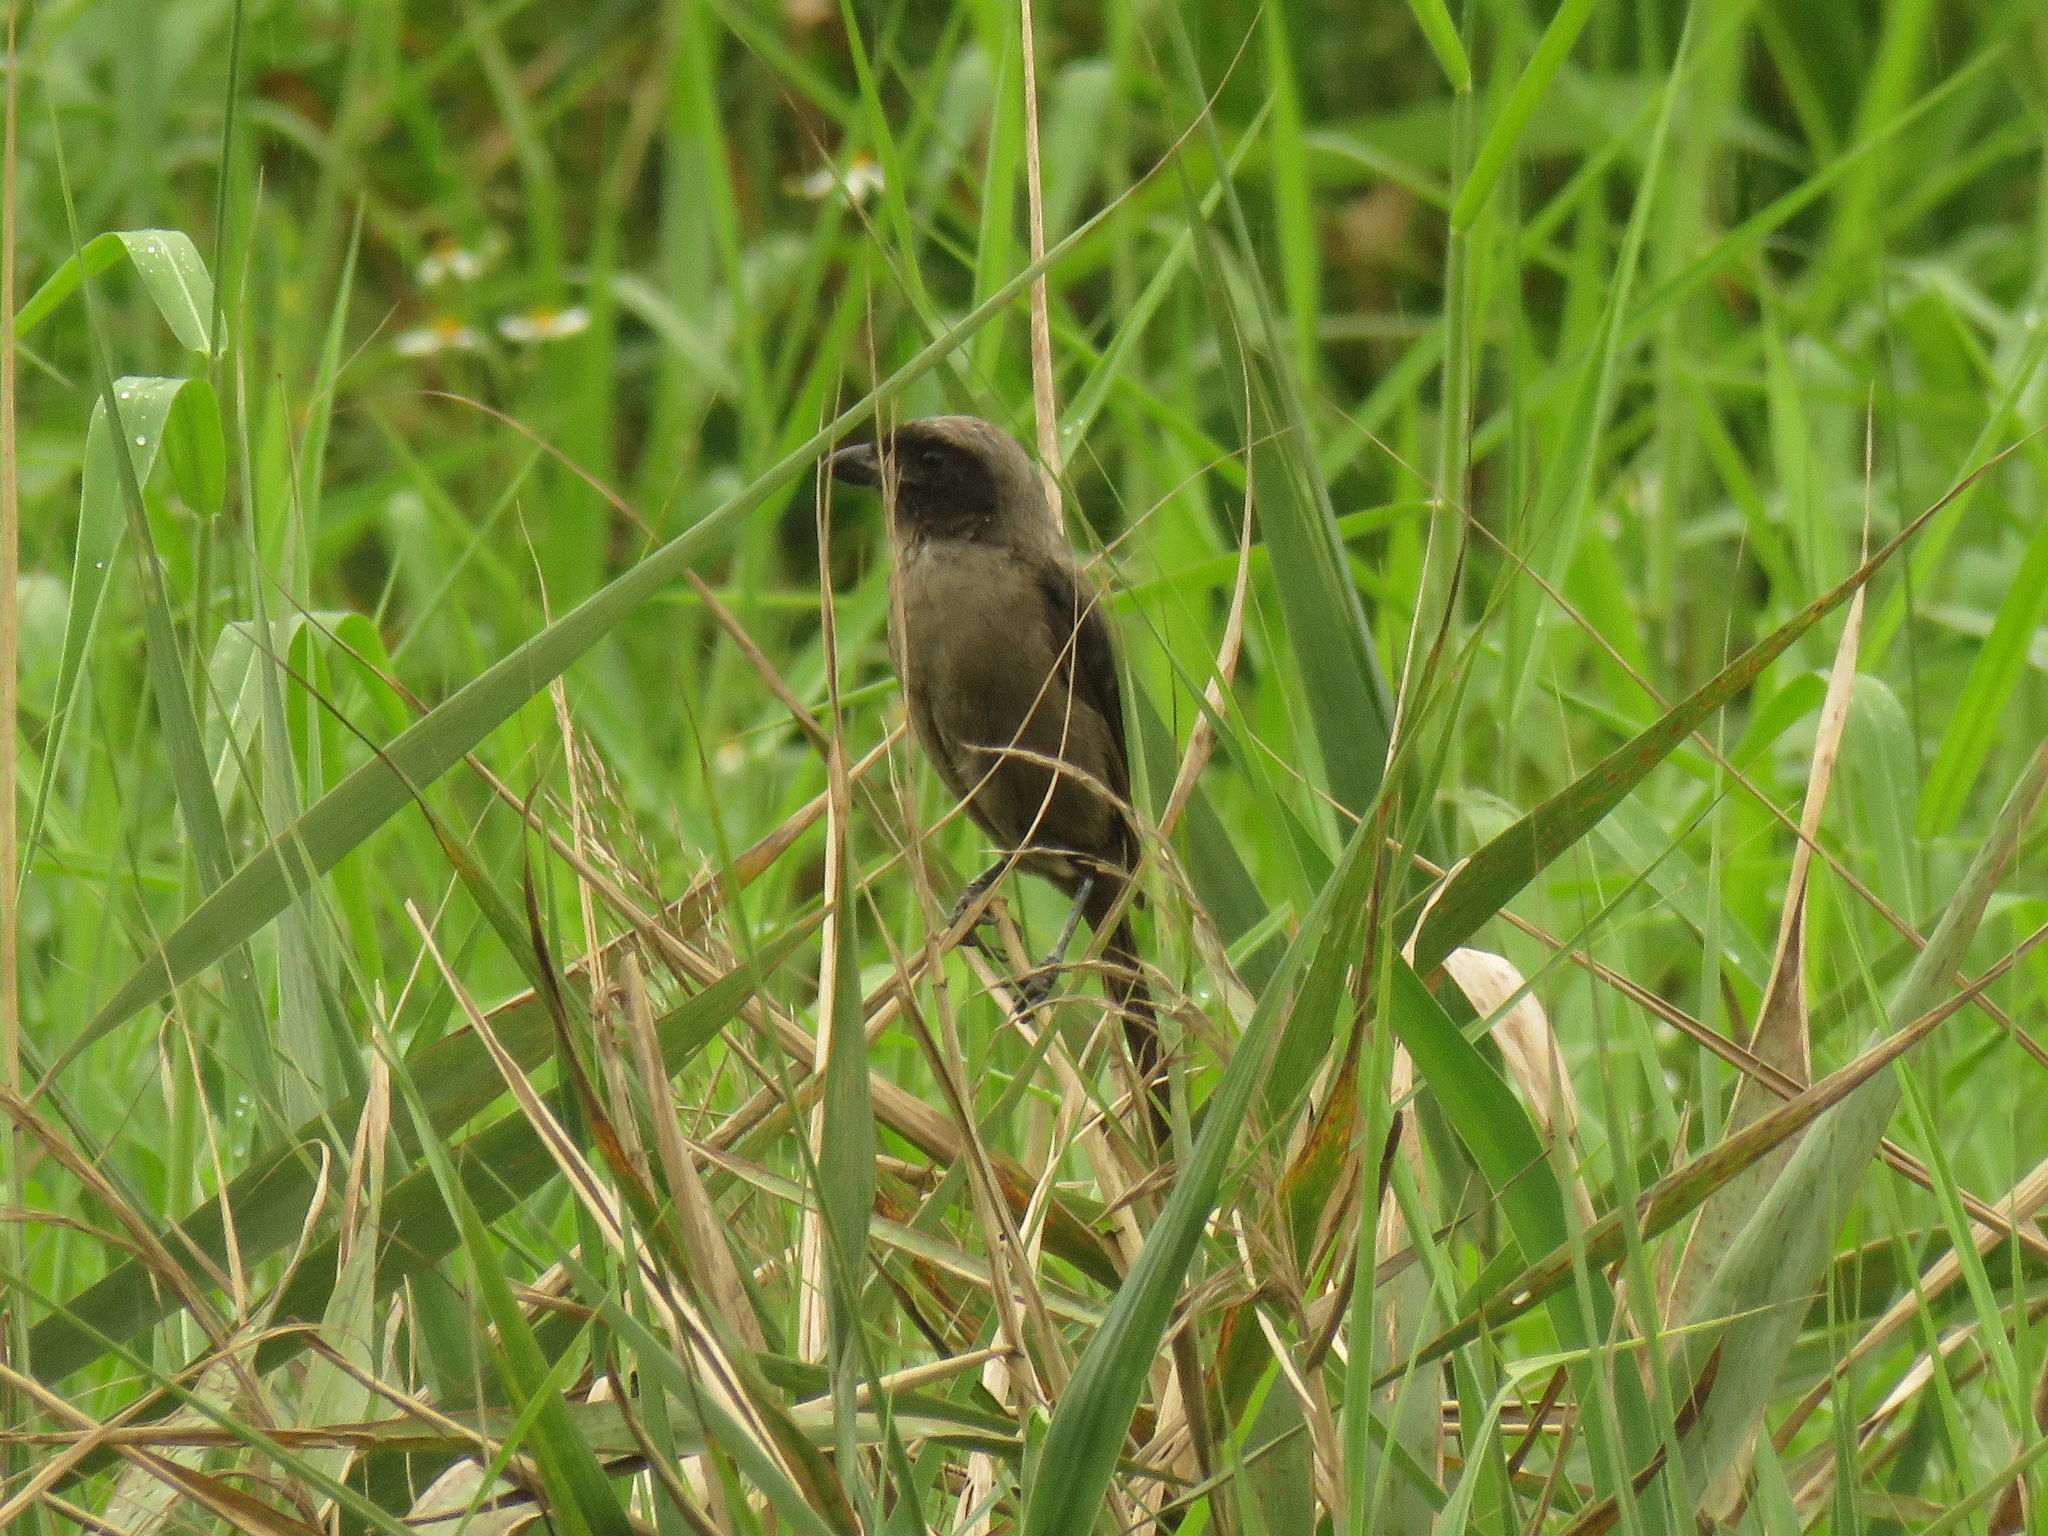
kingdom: Animalia
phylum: Chordata
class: Aves
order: Passeriformes
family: Laniidae
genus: Lanius
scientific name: Lanius schach
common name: Long-tailed shrike
